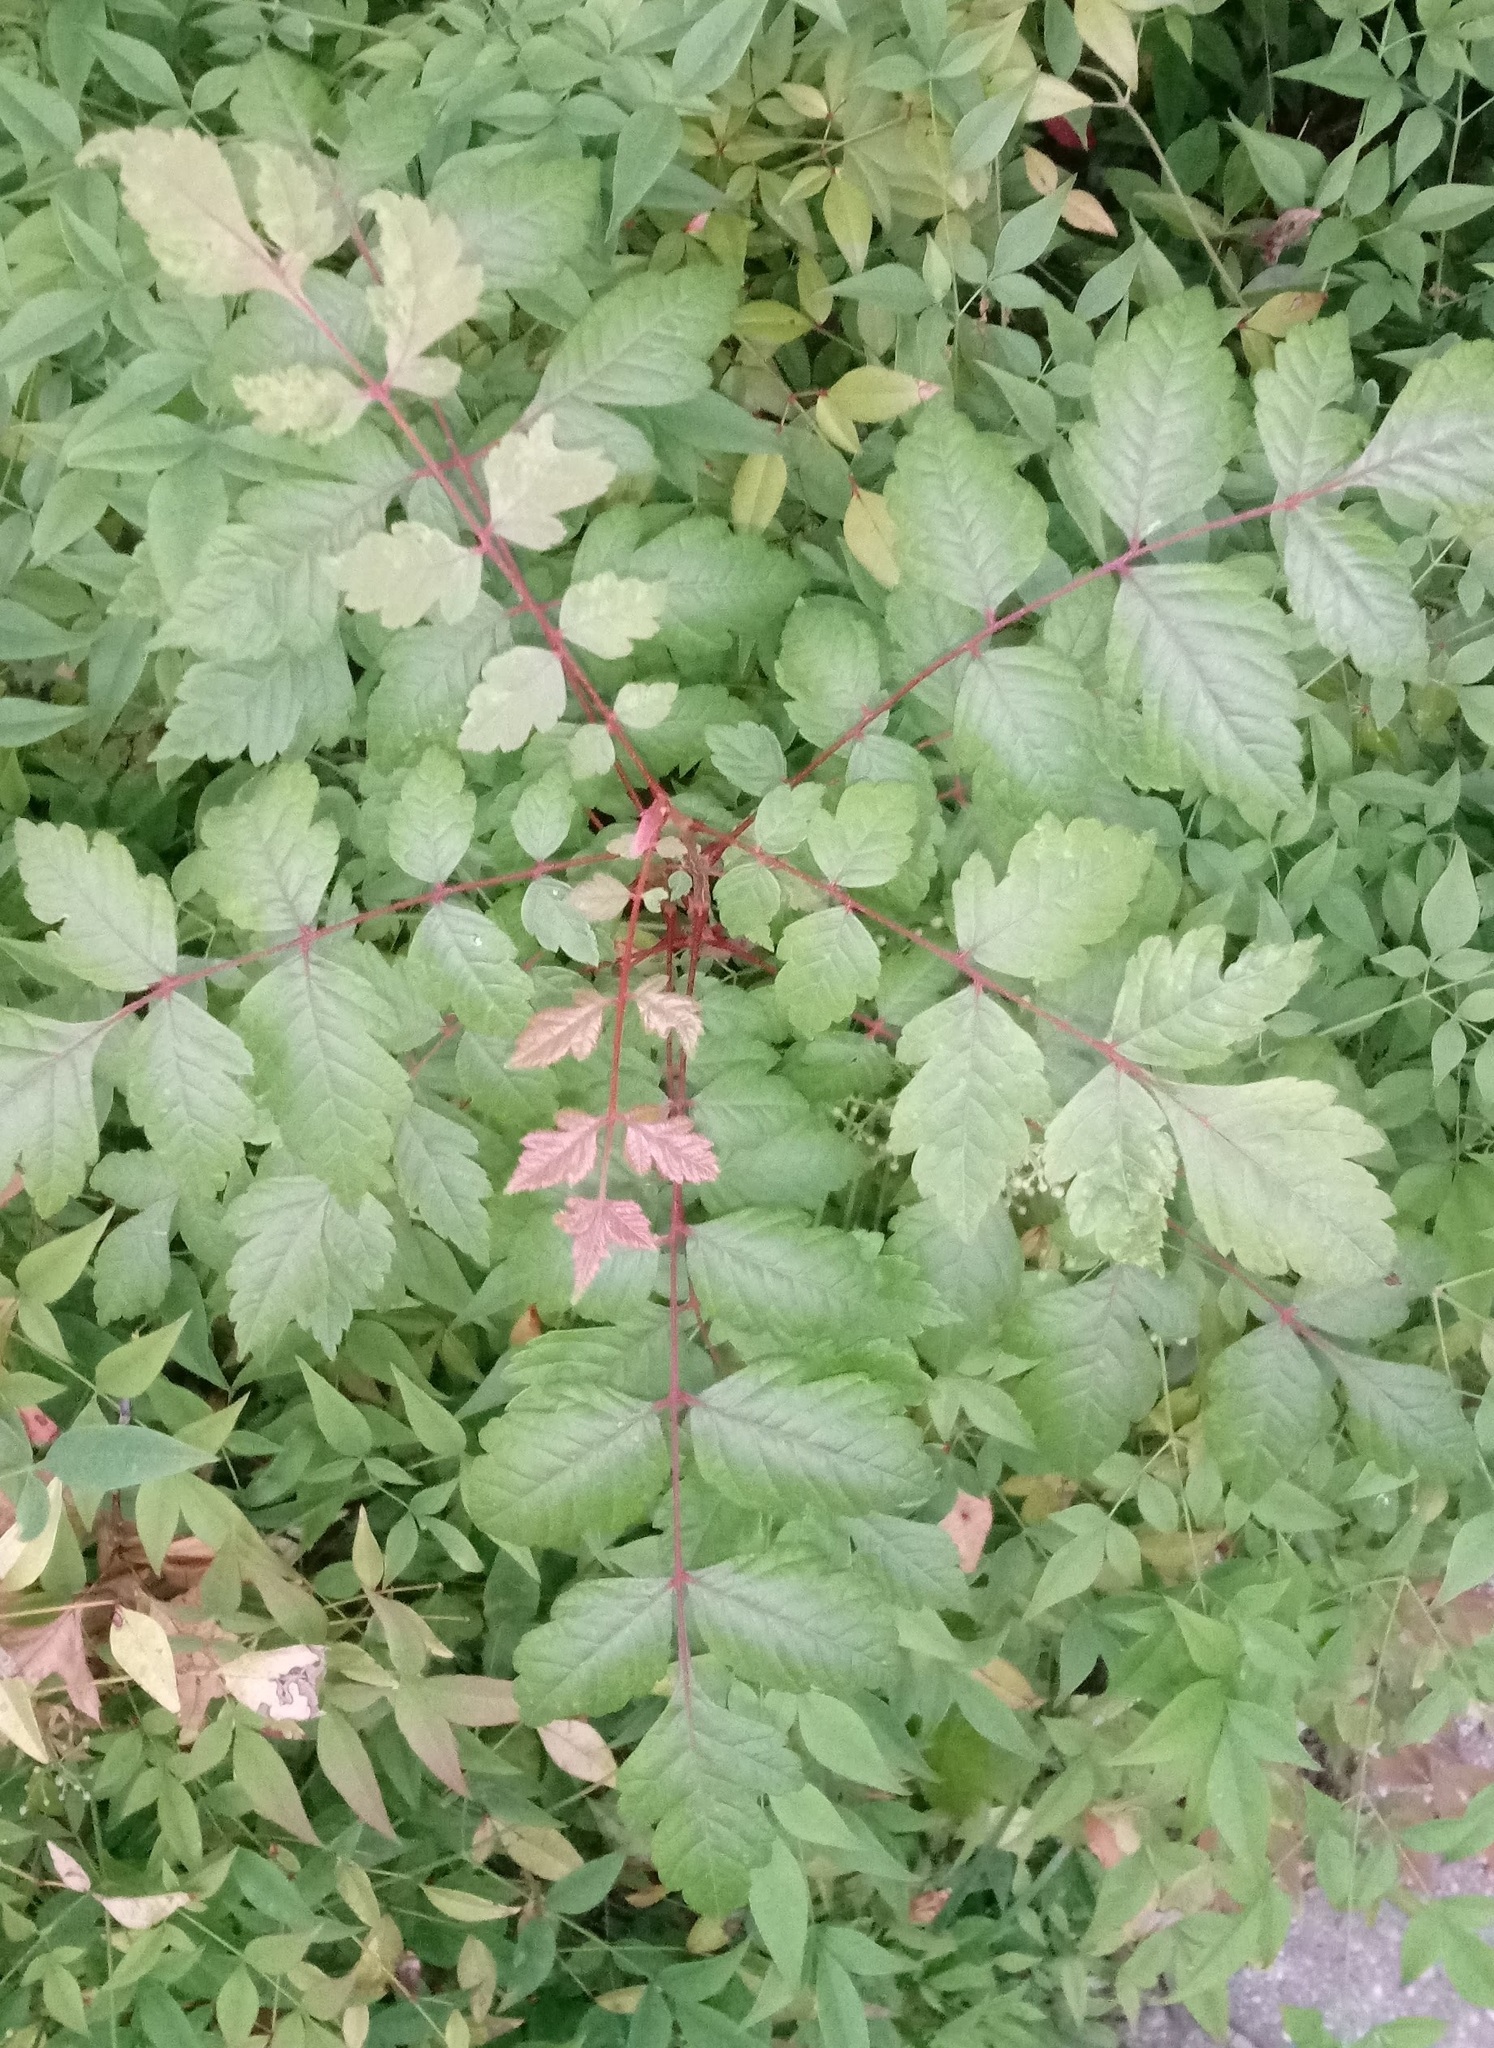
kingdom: Plantae
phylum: Tracheophyta
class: Magnoliopsida
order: Sapindales
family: Sapindaceae
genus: Koelreuteria
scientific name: Koelreuteria paniculata
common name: Pride-of-india
